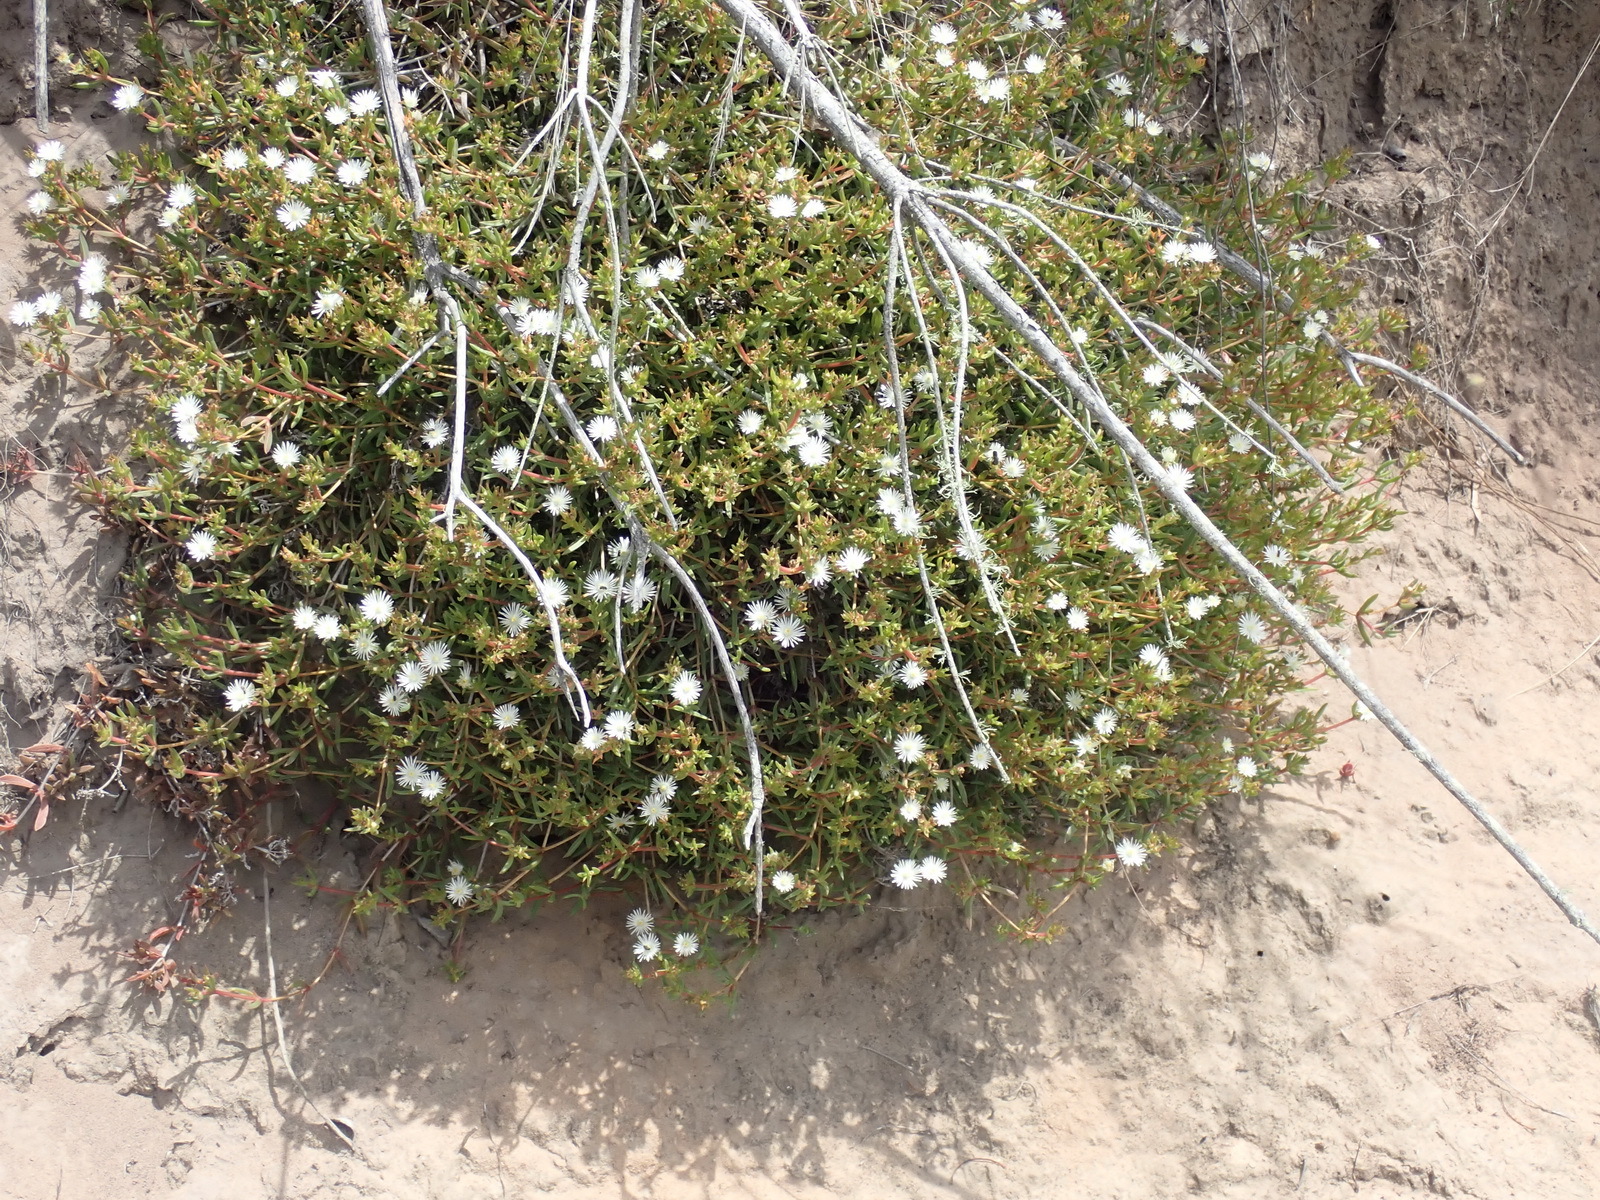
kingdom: Plantae
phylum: Tracheophyta
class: Magnoliopsida
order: Caryophyllales
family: Aizoaceae
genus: Delosperma
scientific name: Delosperma inconspicuum
